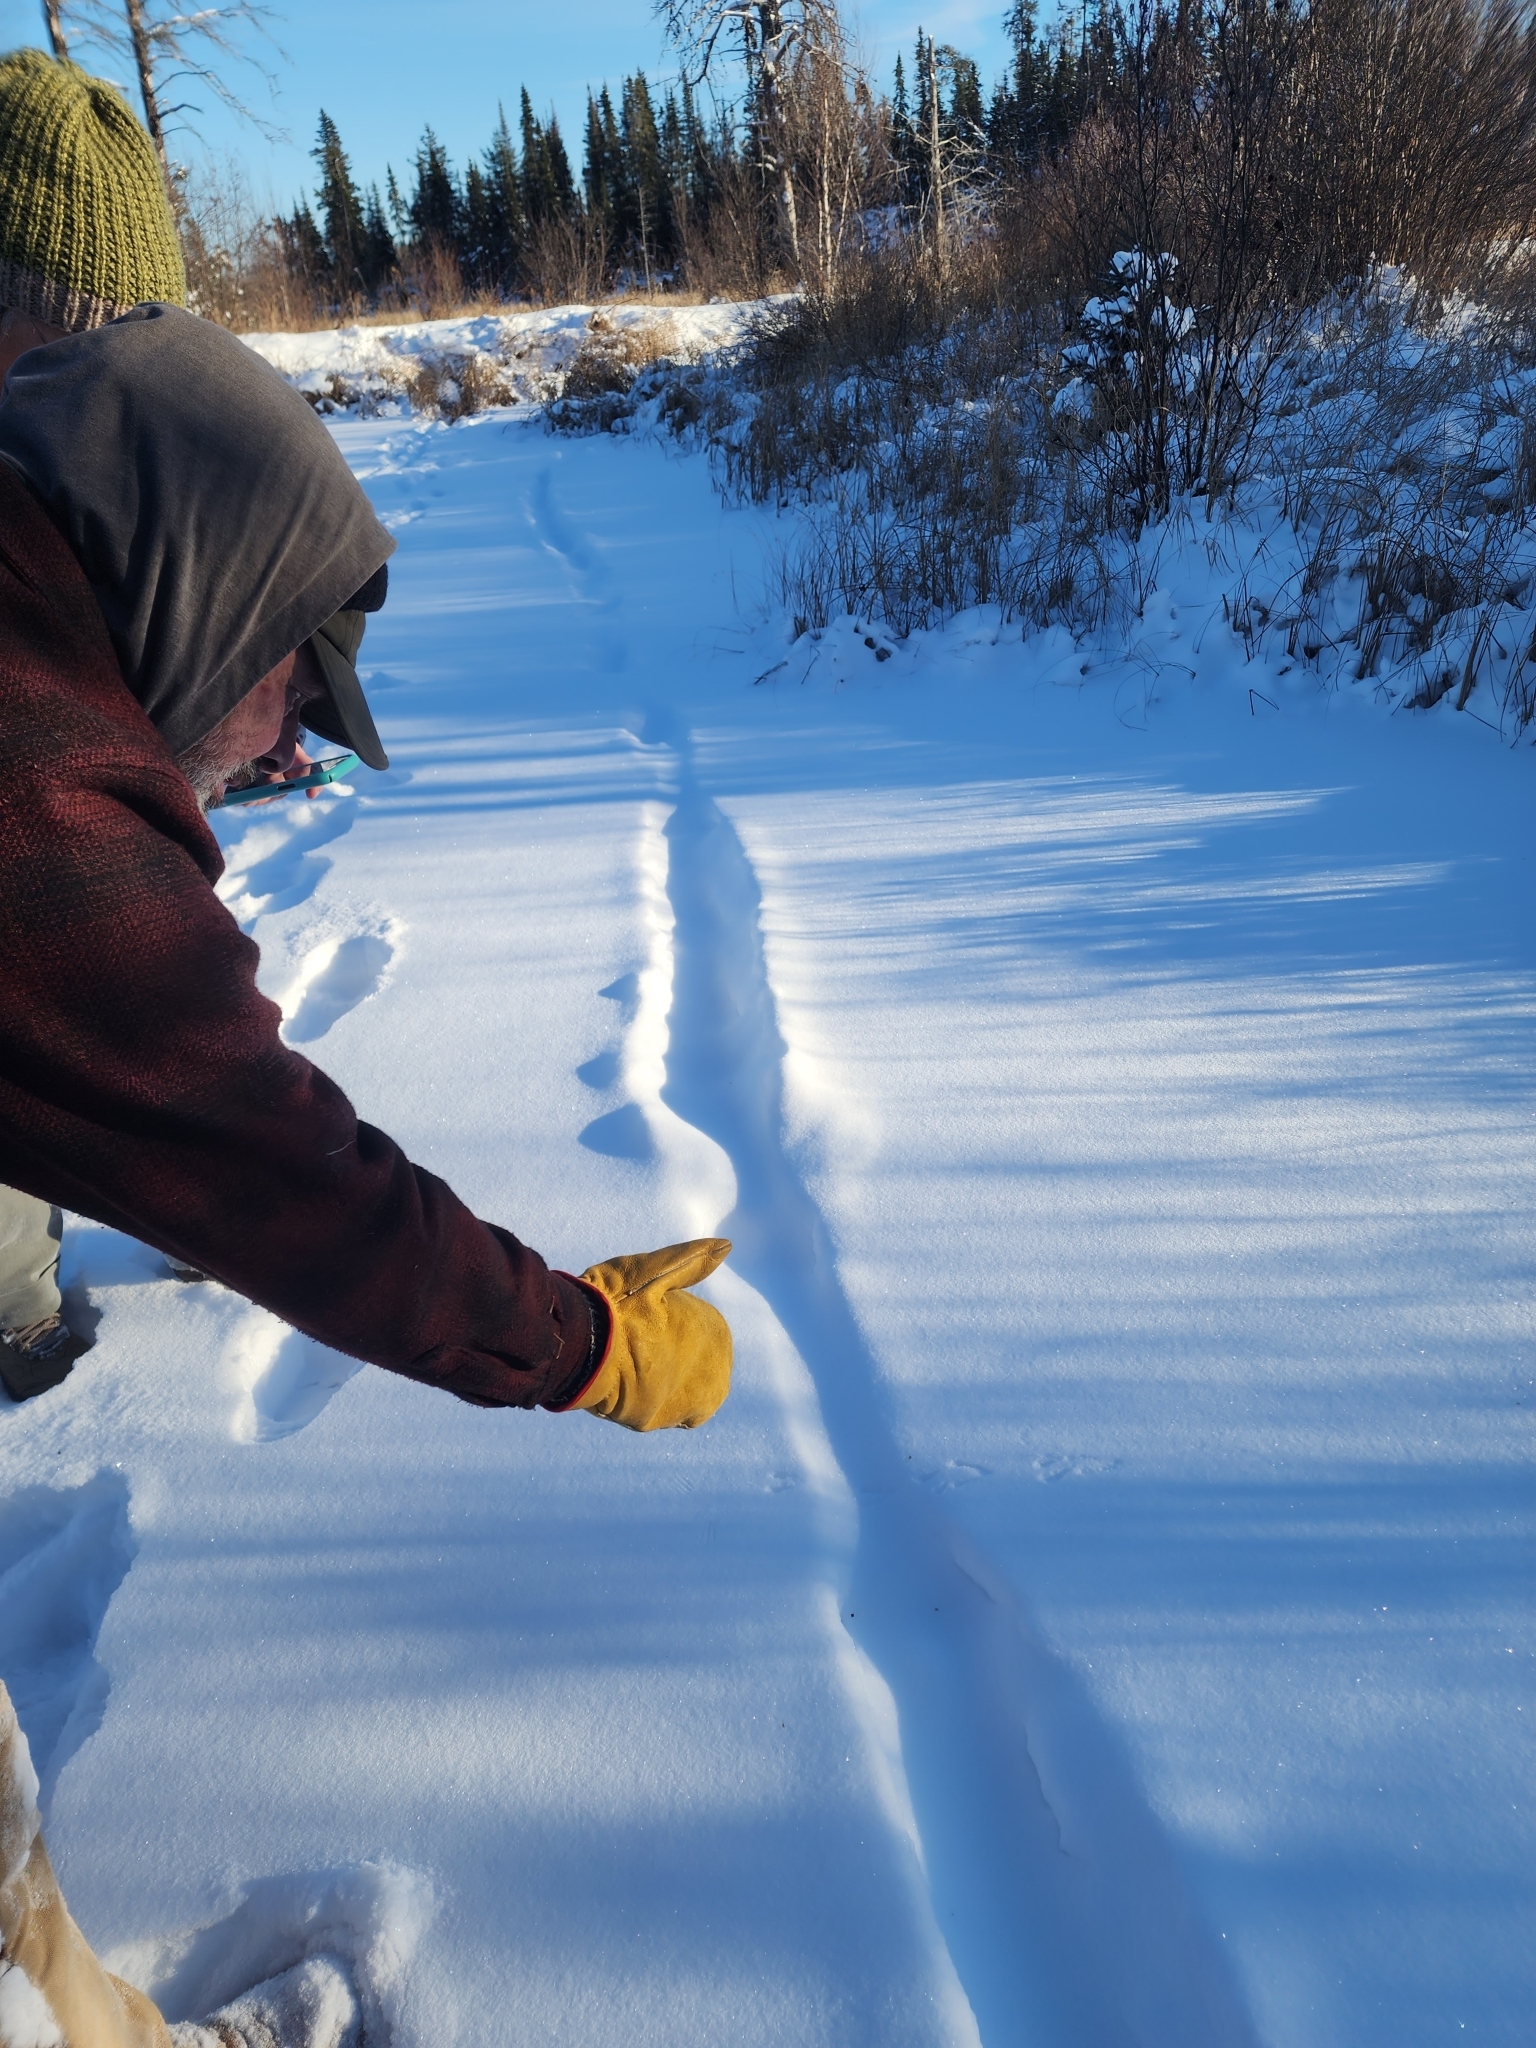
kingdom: Animalia
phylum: Chordata
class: Mammalia
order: Carnivora
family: Mustelidae
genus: Lontra
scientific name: Lontra canadensis
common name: North american river otter
